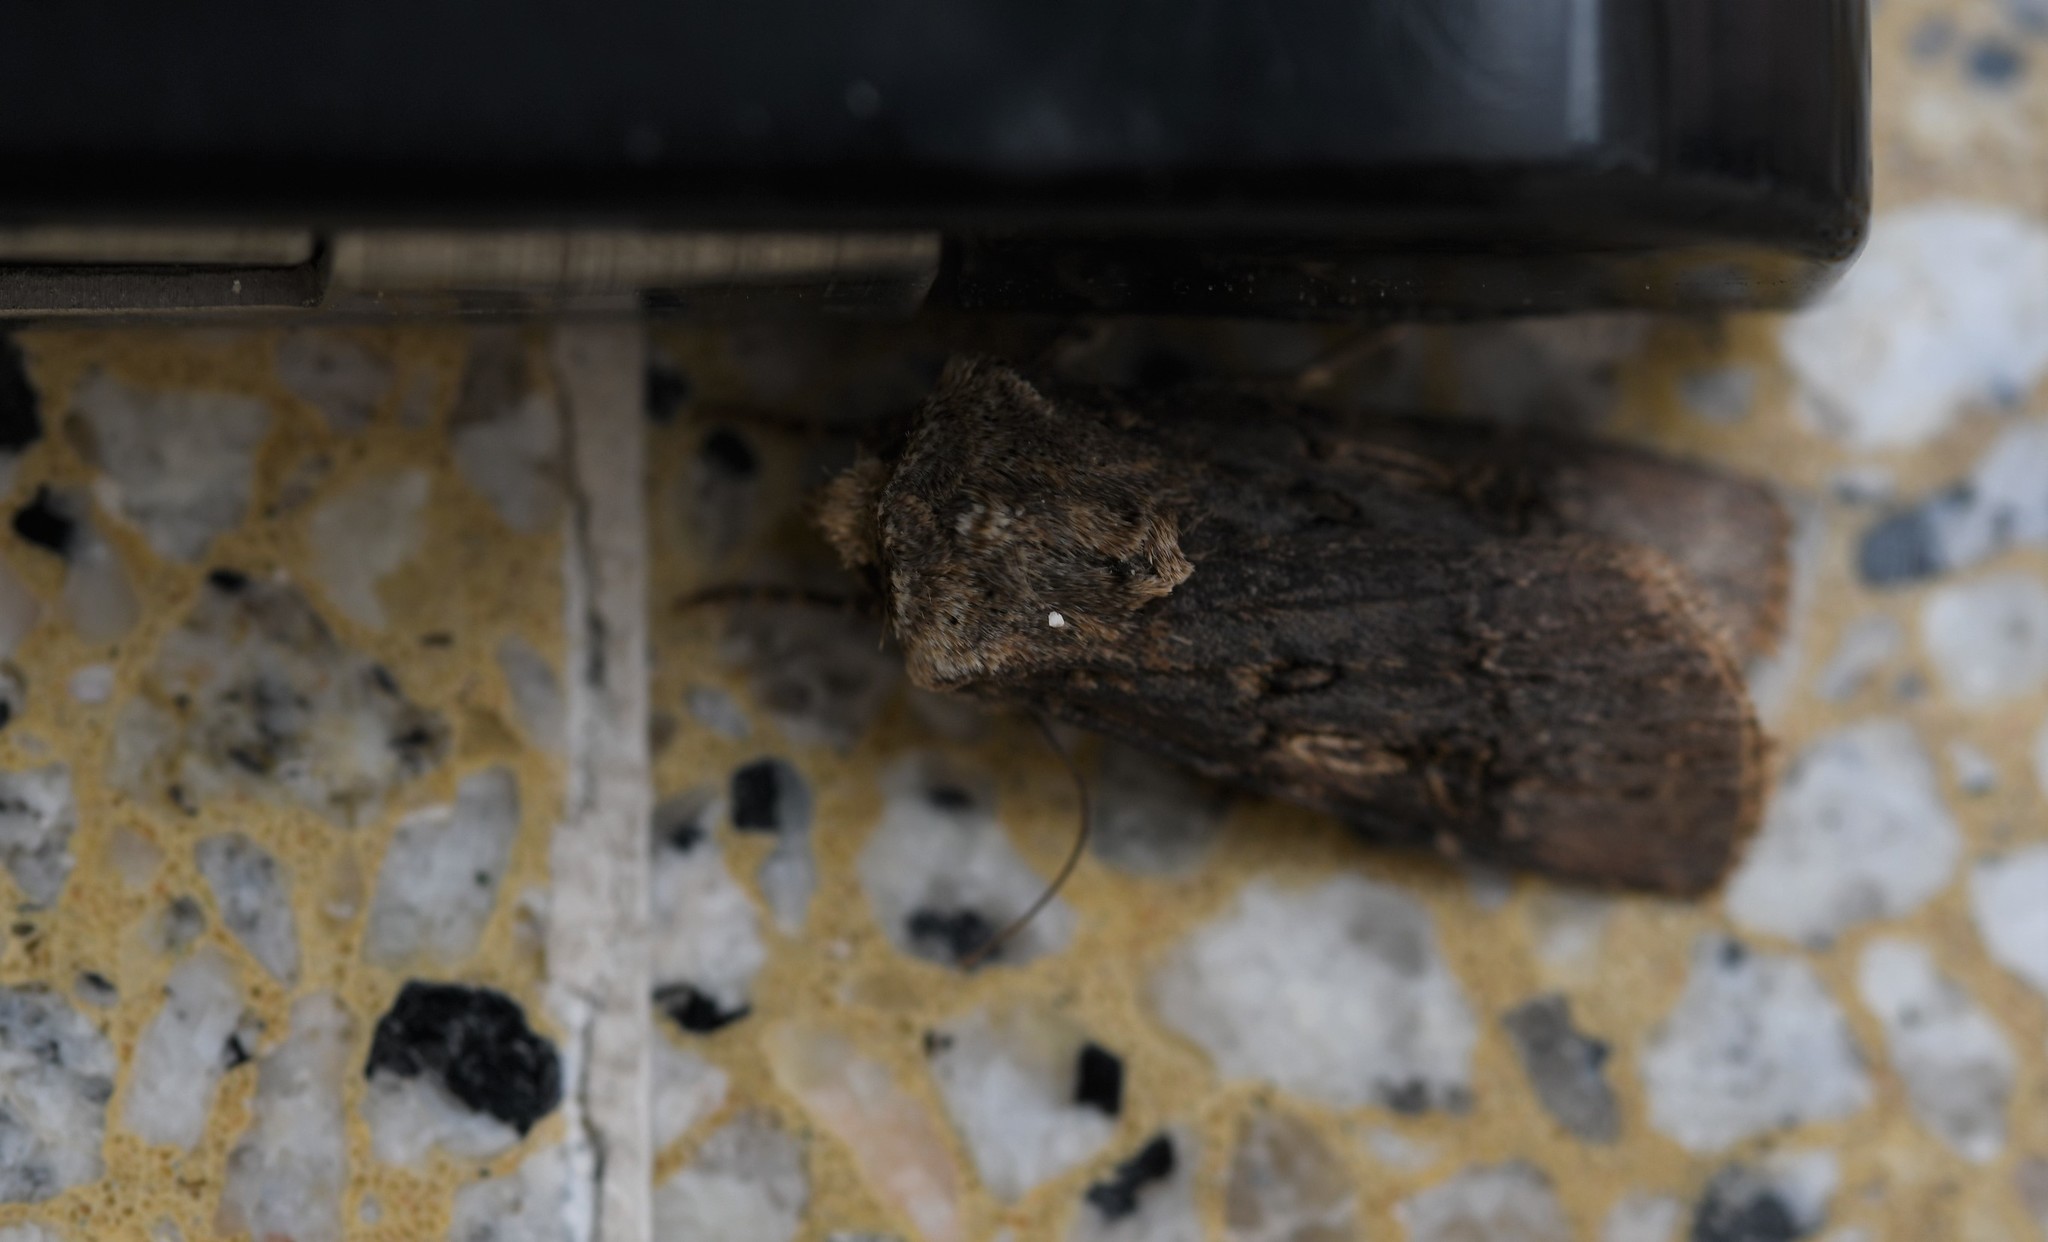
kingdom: Animalia
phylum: Arthropoda
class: Insecta
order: Lepidoptera
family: Noctuidae
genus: Agrotis
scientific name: Agrotis puta
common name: Shuttle-shaped dart
